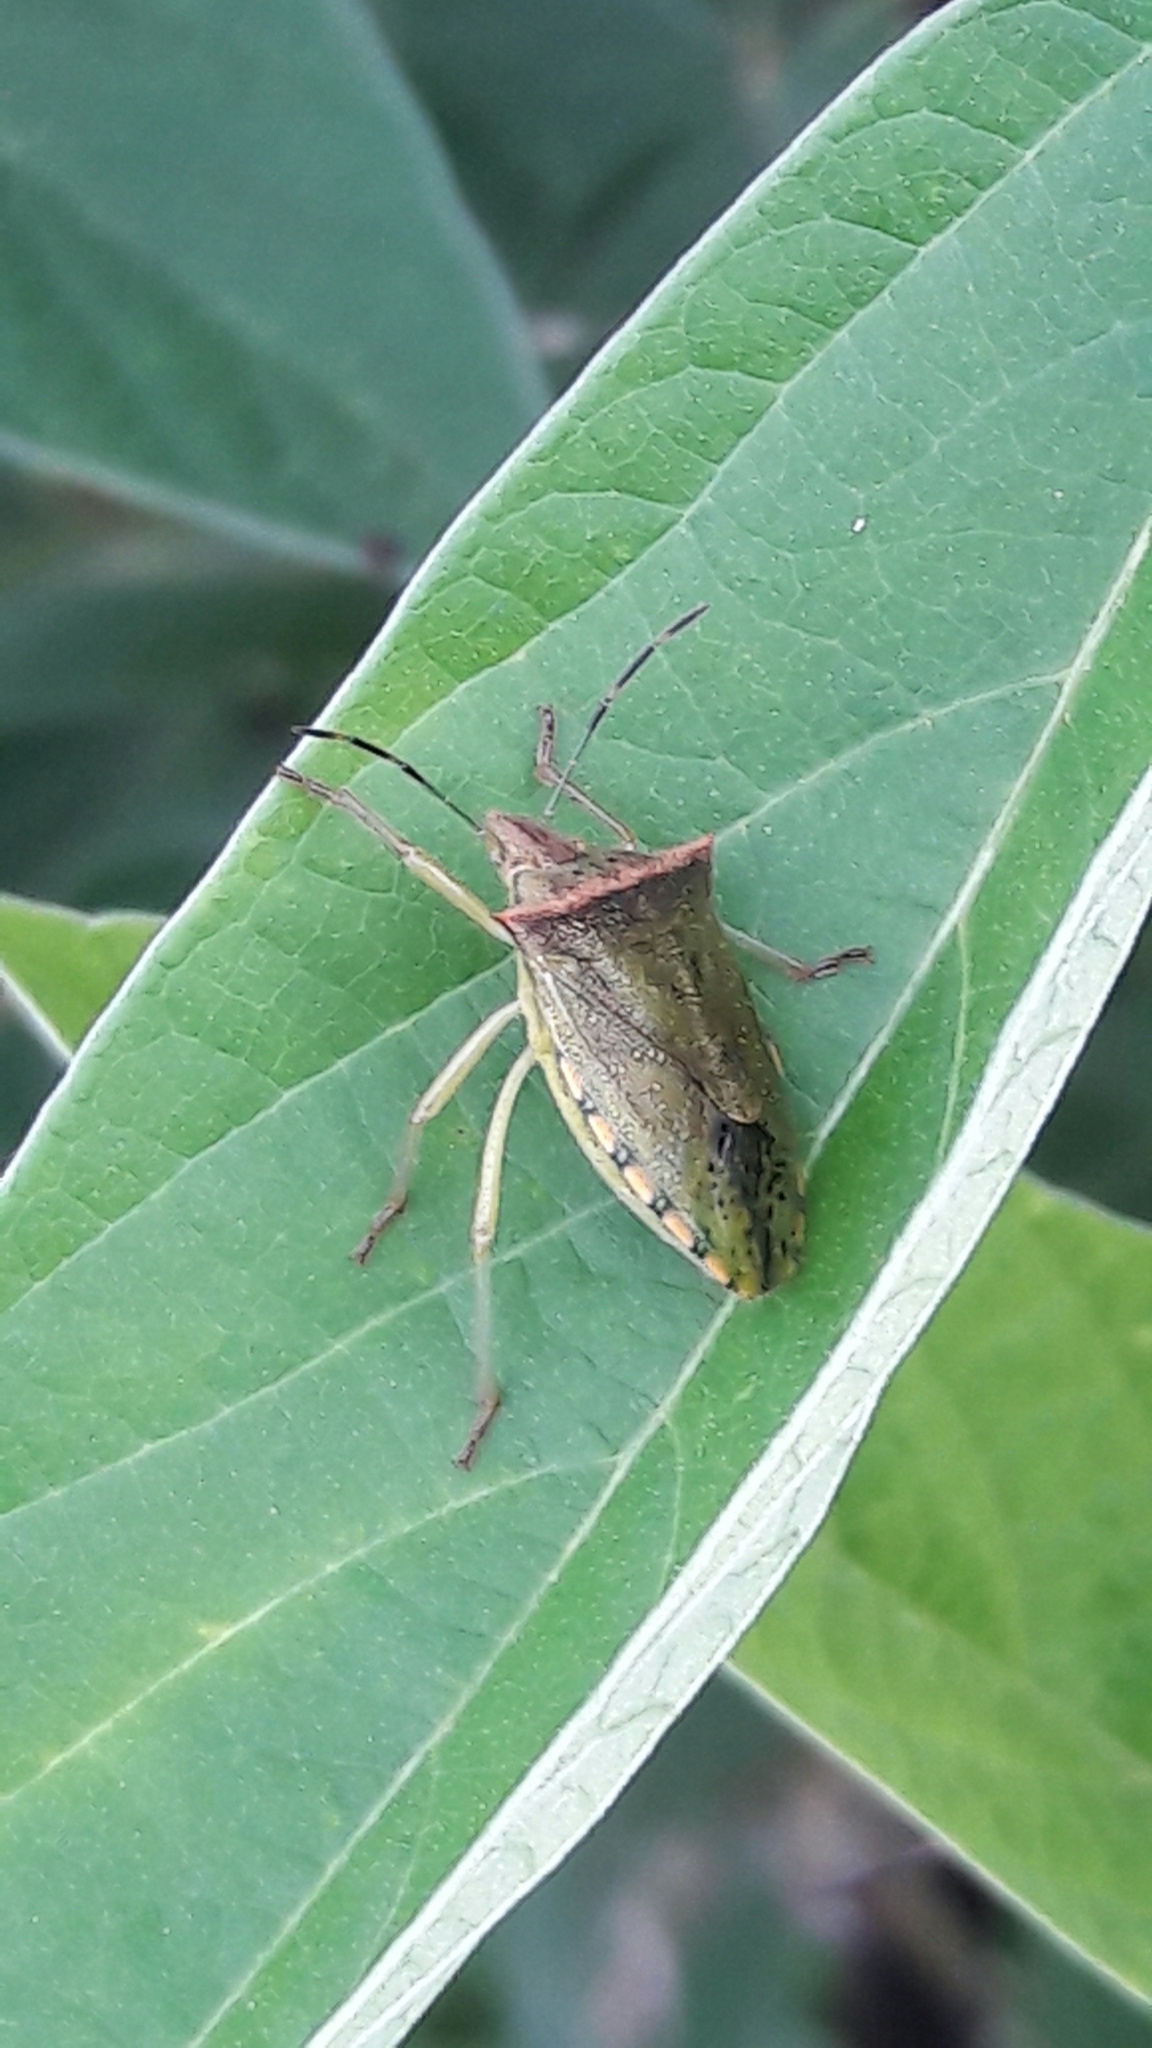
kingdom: Animalia
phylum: Arthropoda
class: Insecta
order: Hemiptera
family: Pentatomidae
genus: Thyanta
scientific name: Thyanta perditor
